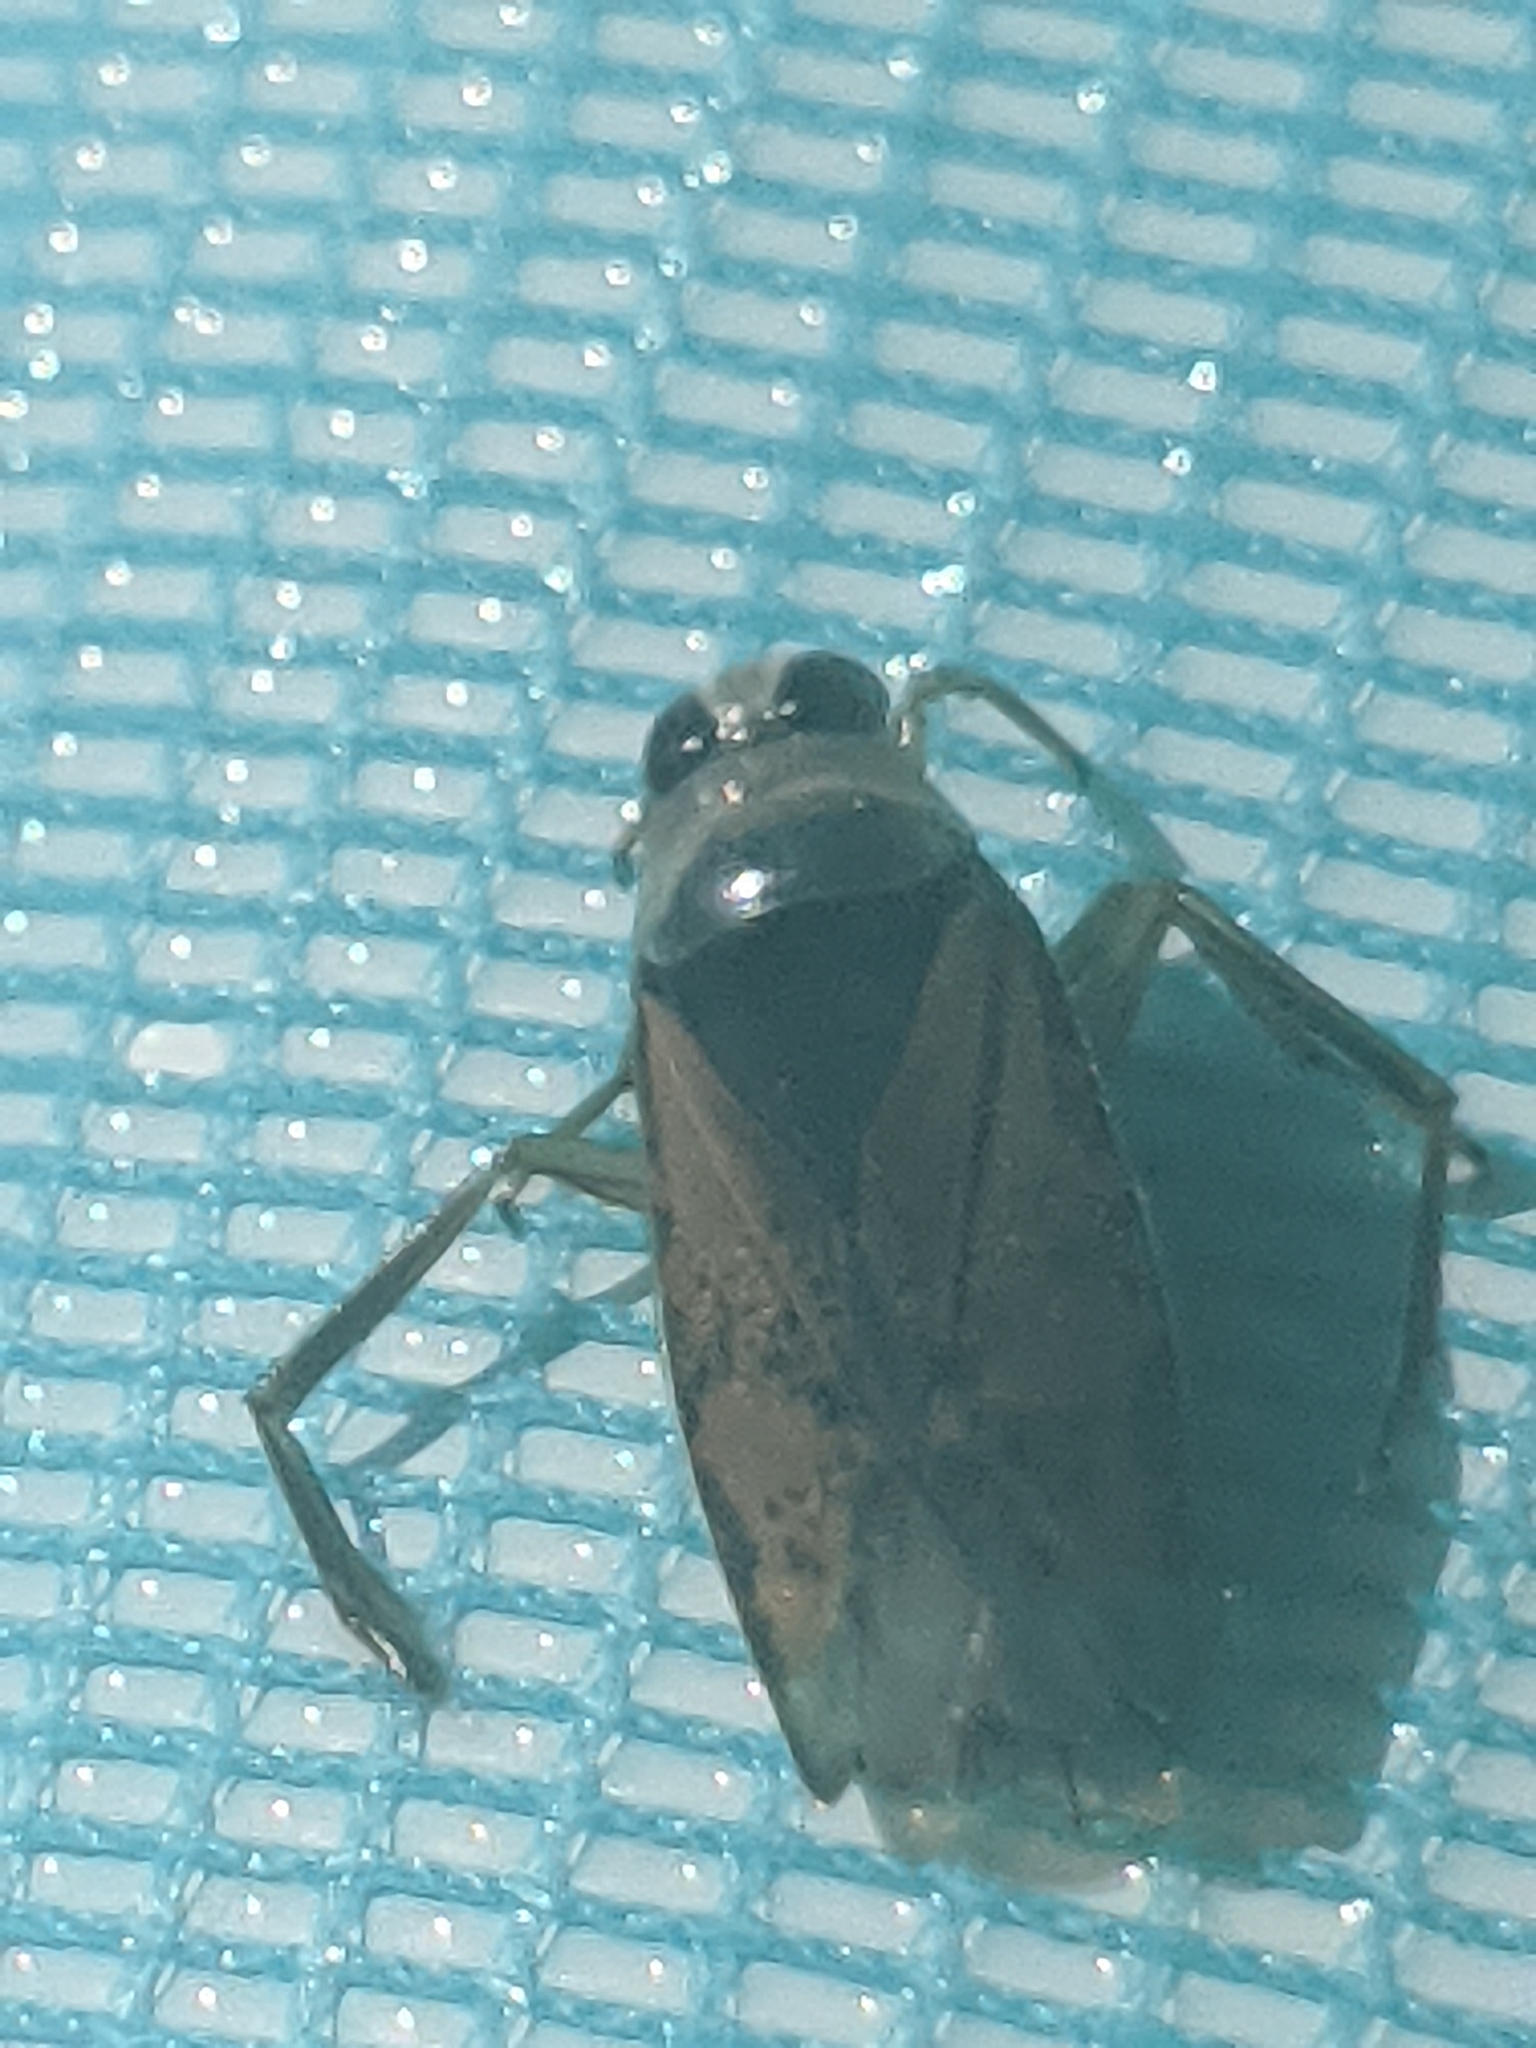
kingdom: Animalia
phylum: Arthropoda
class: Insecta
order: Hemiptera
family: Notonectidae
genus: Notonecta
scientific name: Notonecta maculata
